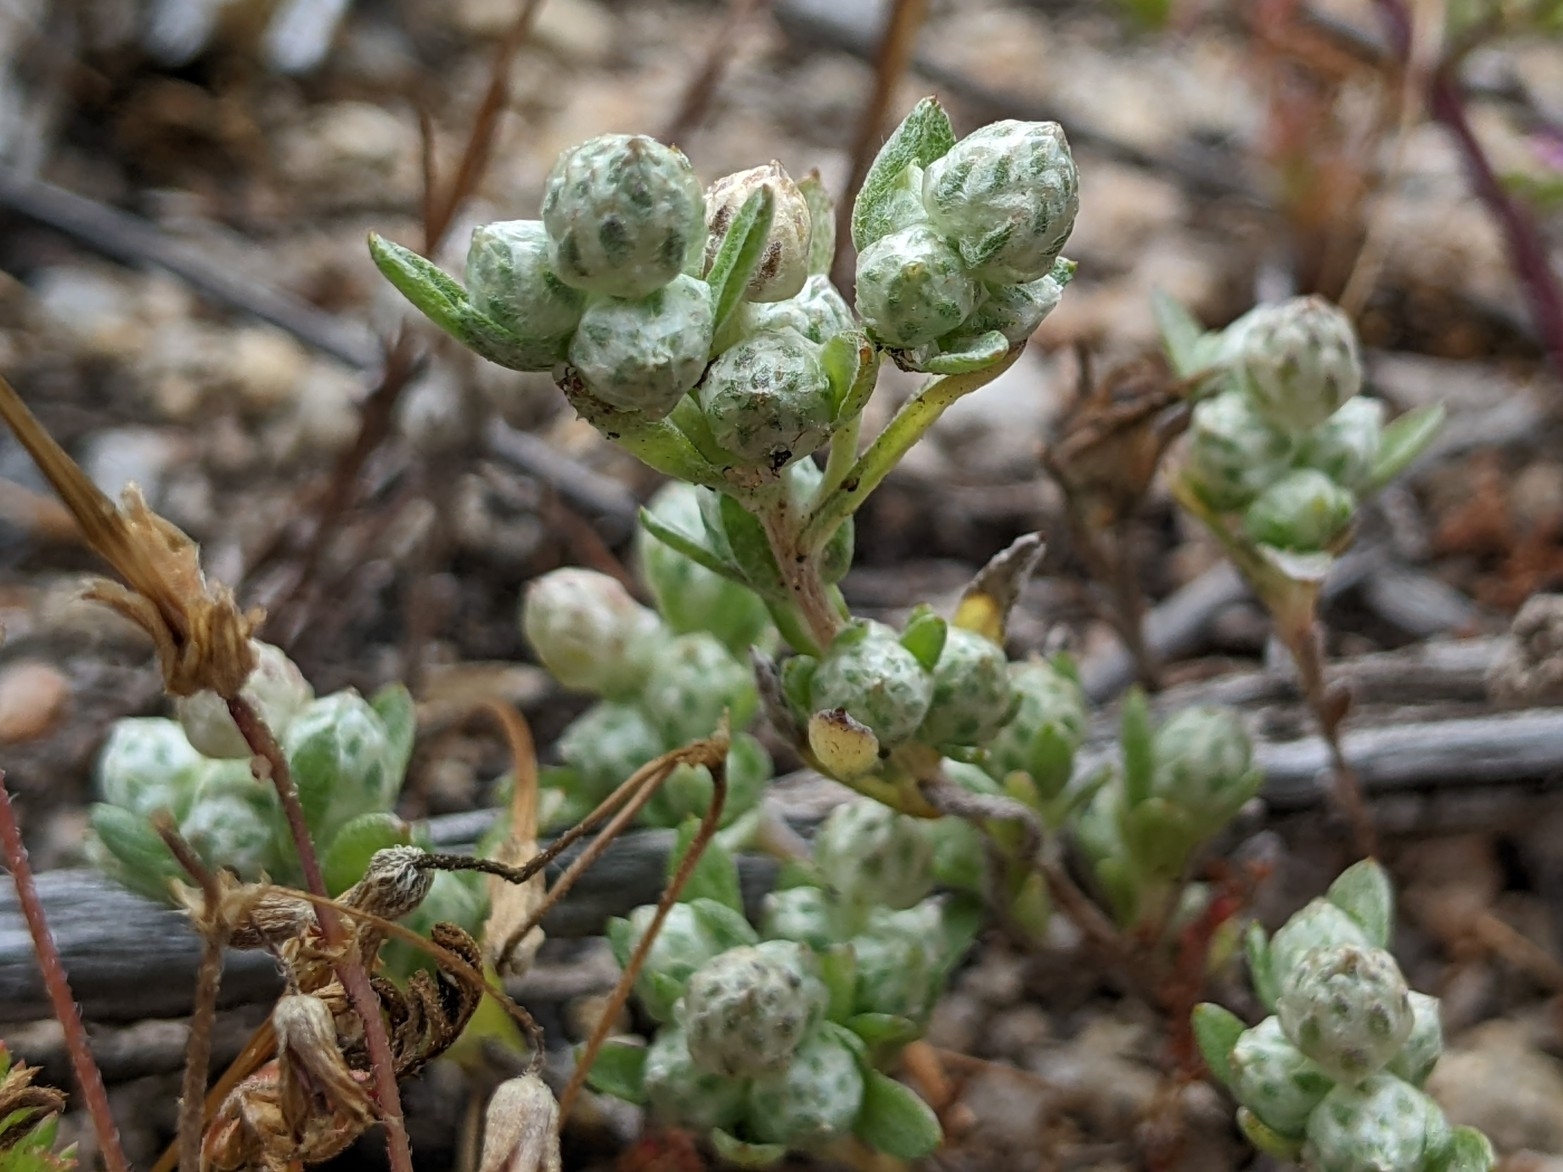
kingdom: Plantae
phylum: Tracheophyta
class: Magnoliopsida
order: Asterales
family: Asteraceae
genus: Stylocline
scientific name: Stylocline gnaphaloides
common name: Everlasting nest-straw
